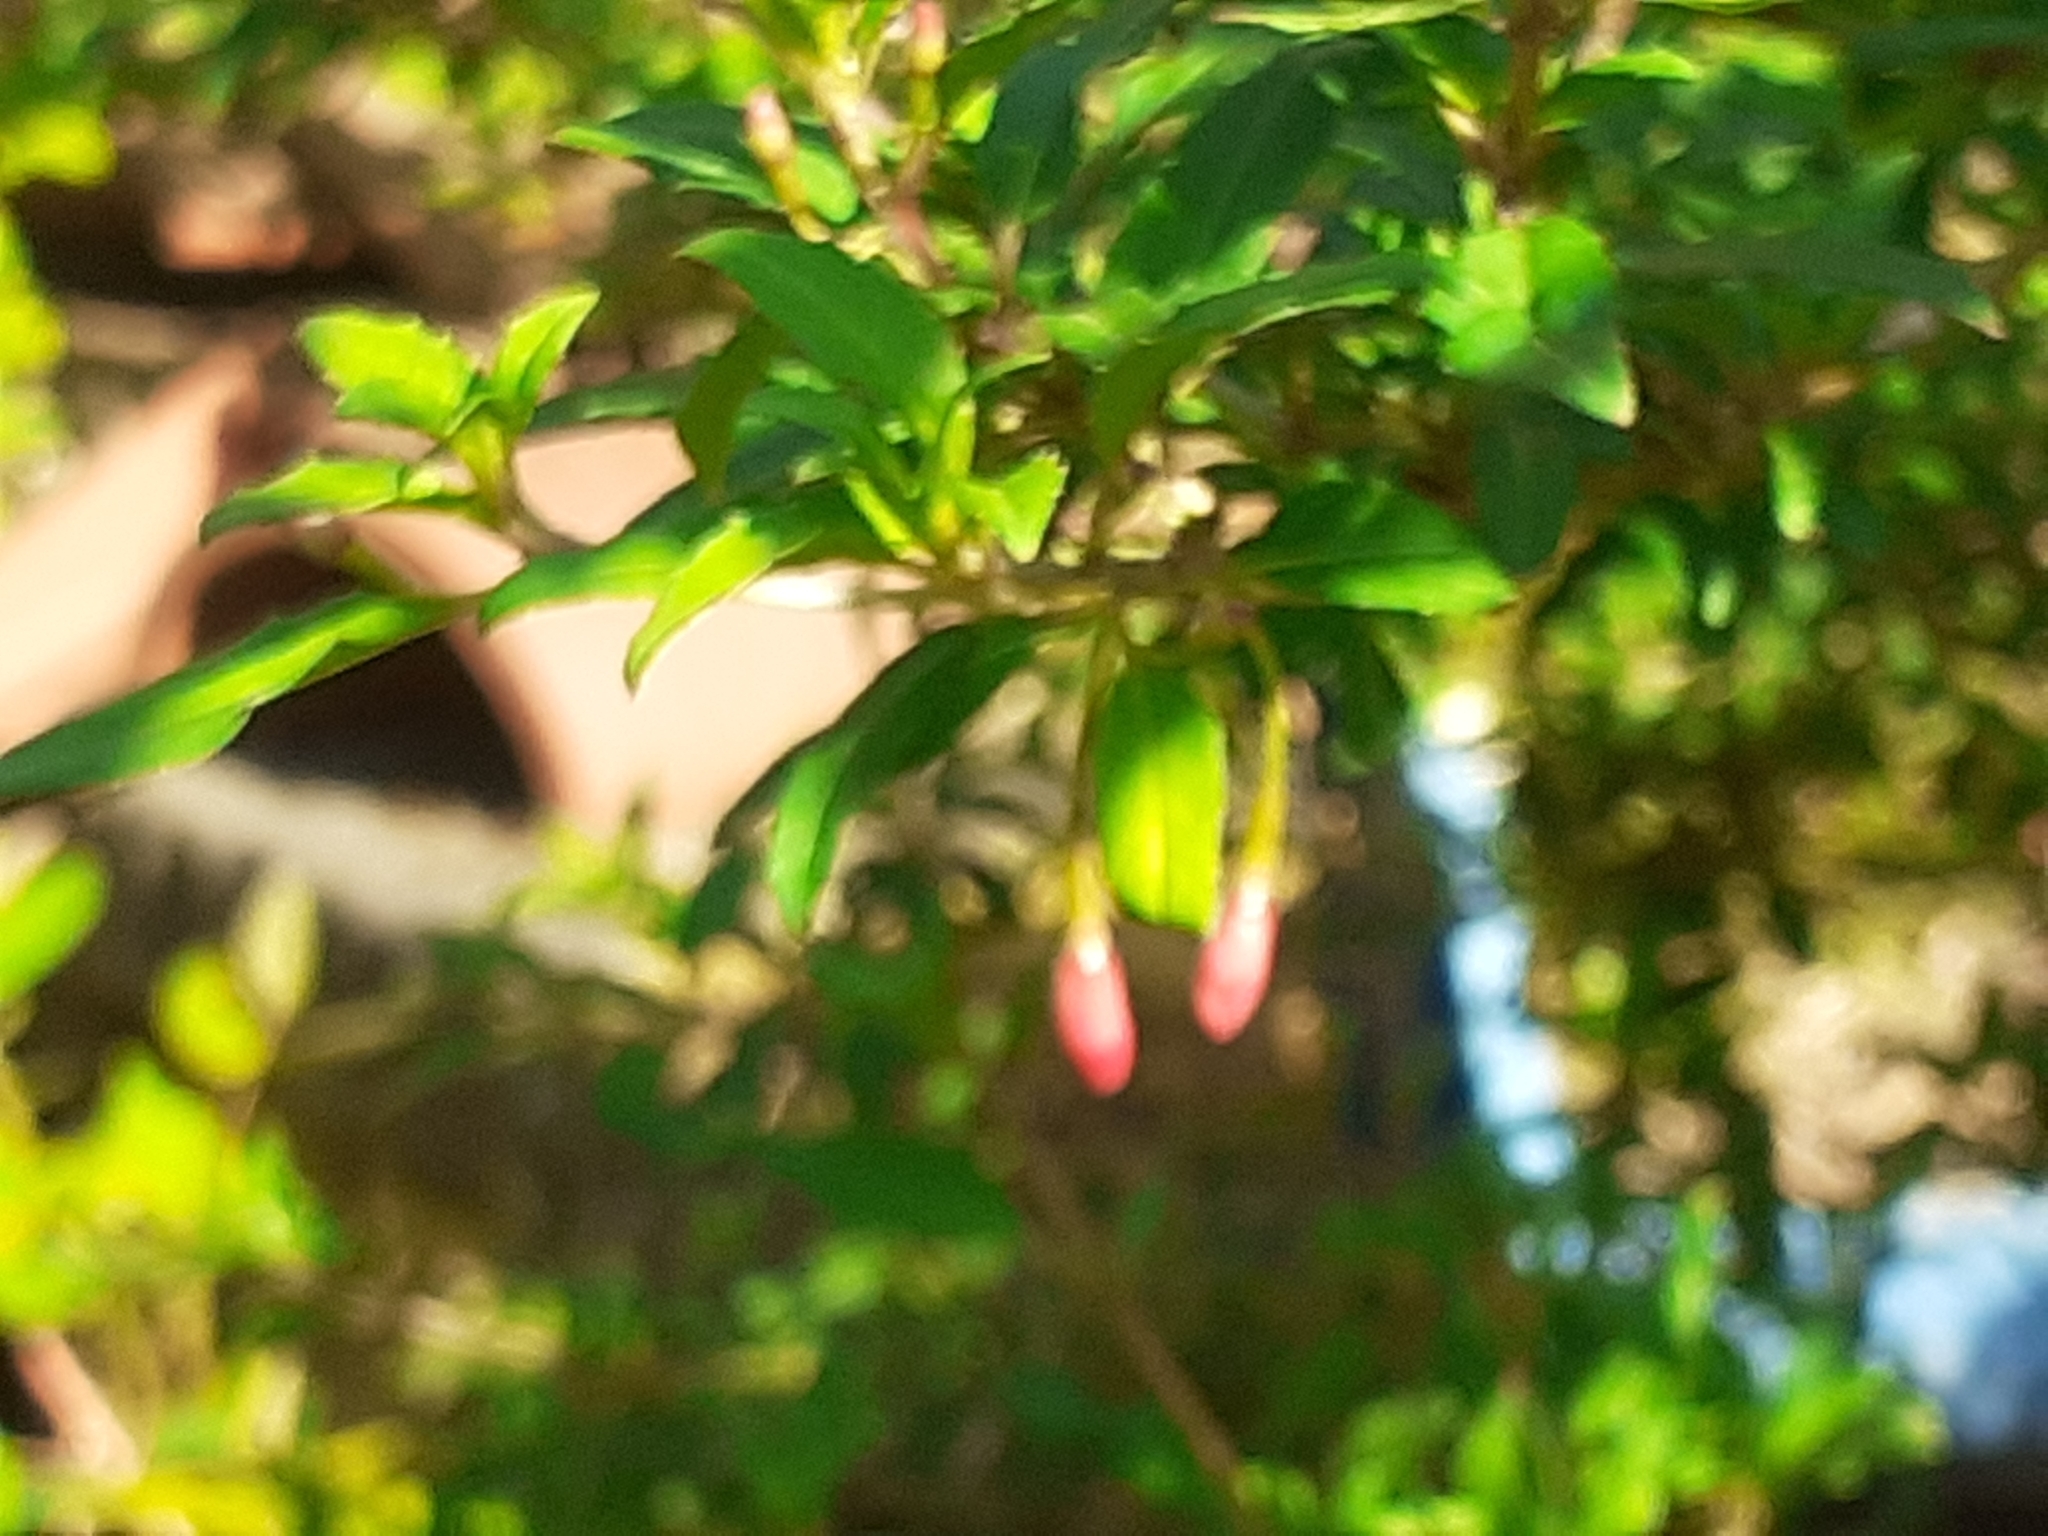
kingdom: Plantae
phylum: Tracheophyta
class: Magnoliopsida
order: Myrtales
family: Onagraceae
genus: Fuchsia
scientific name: Fuchsia magellanica
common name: Hardy fuchsia
